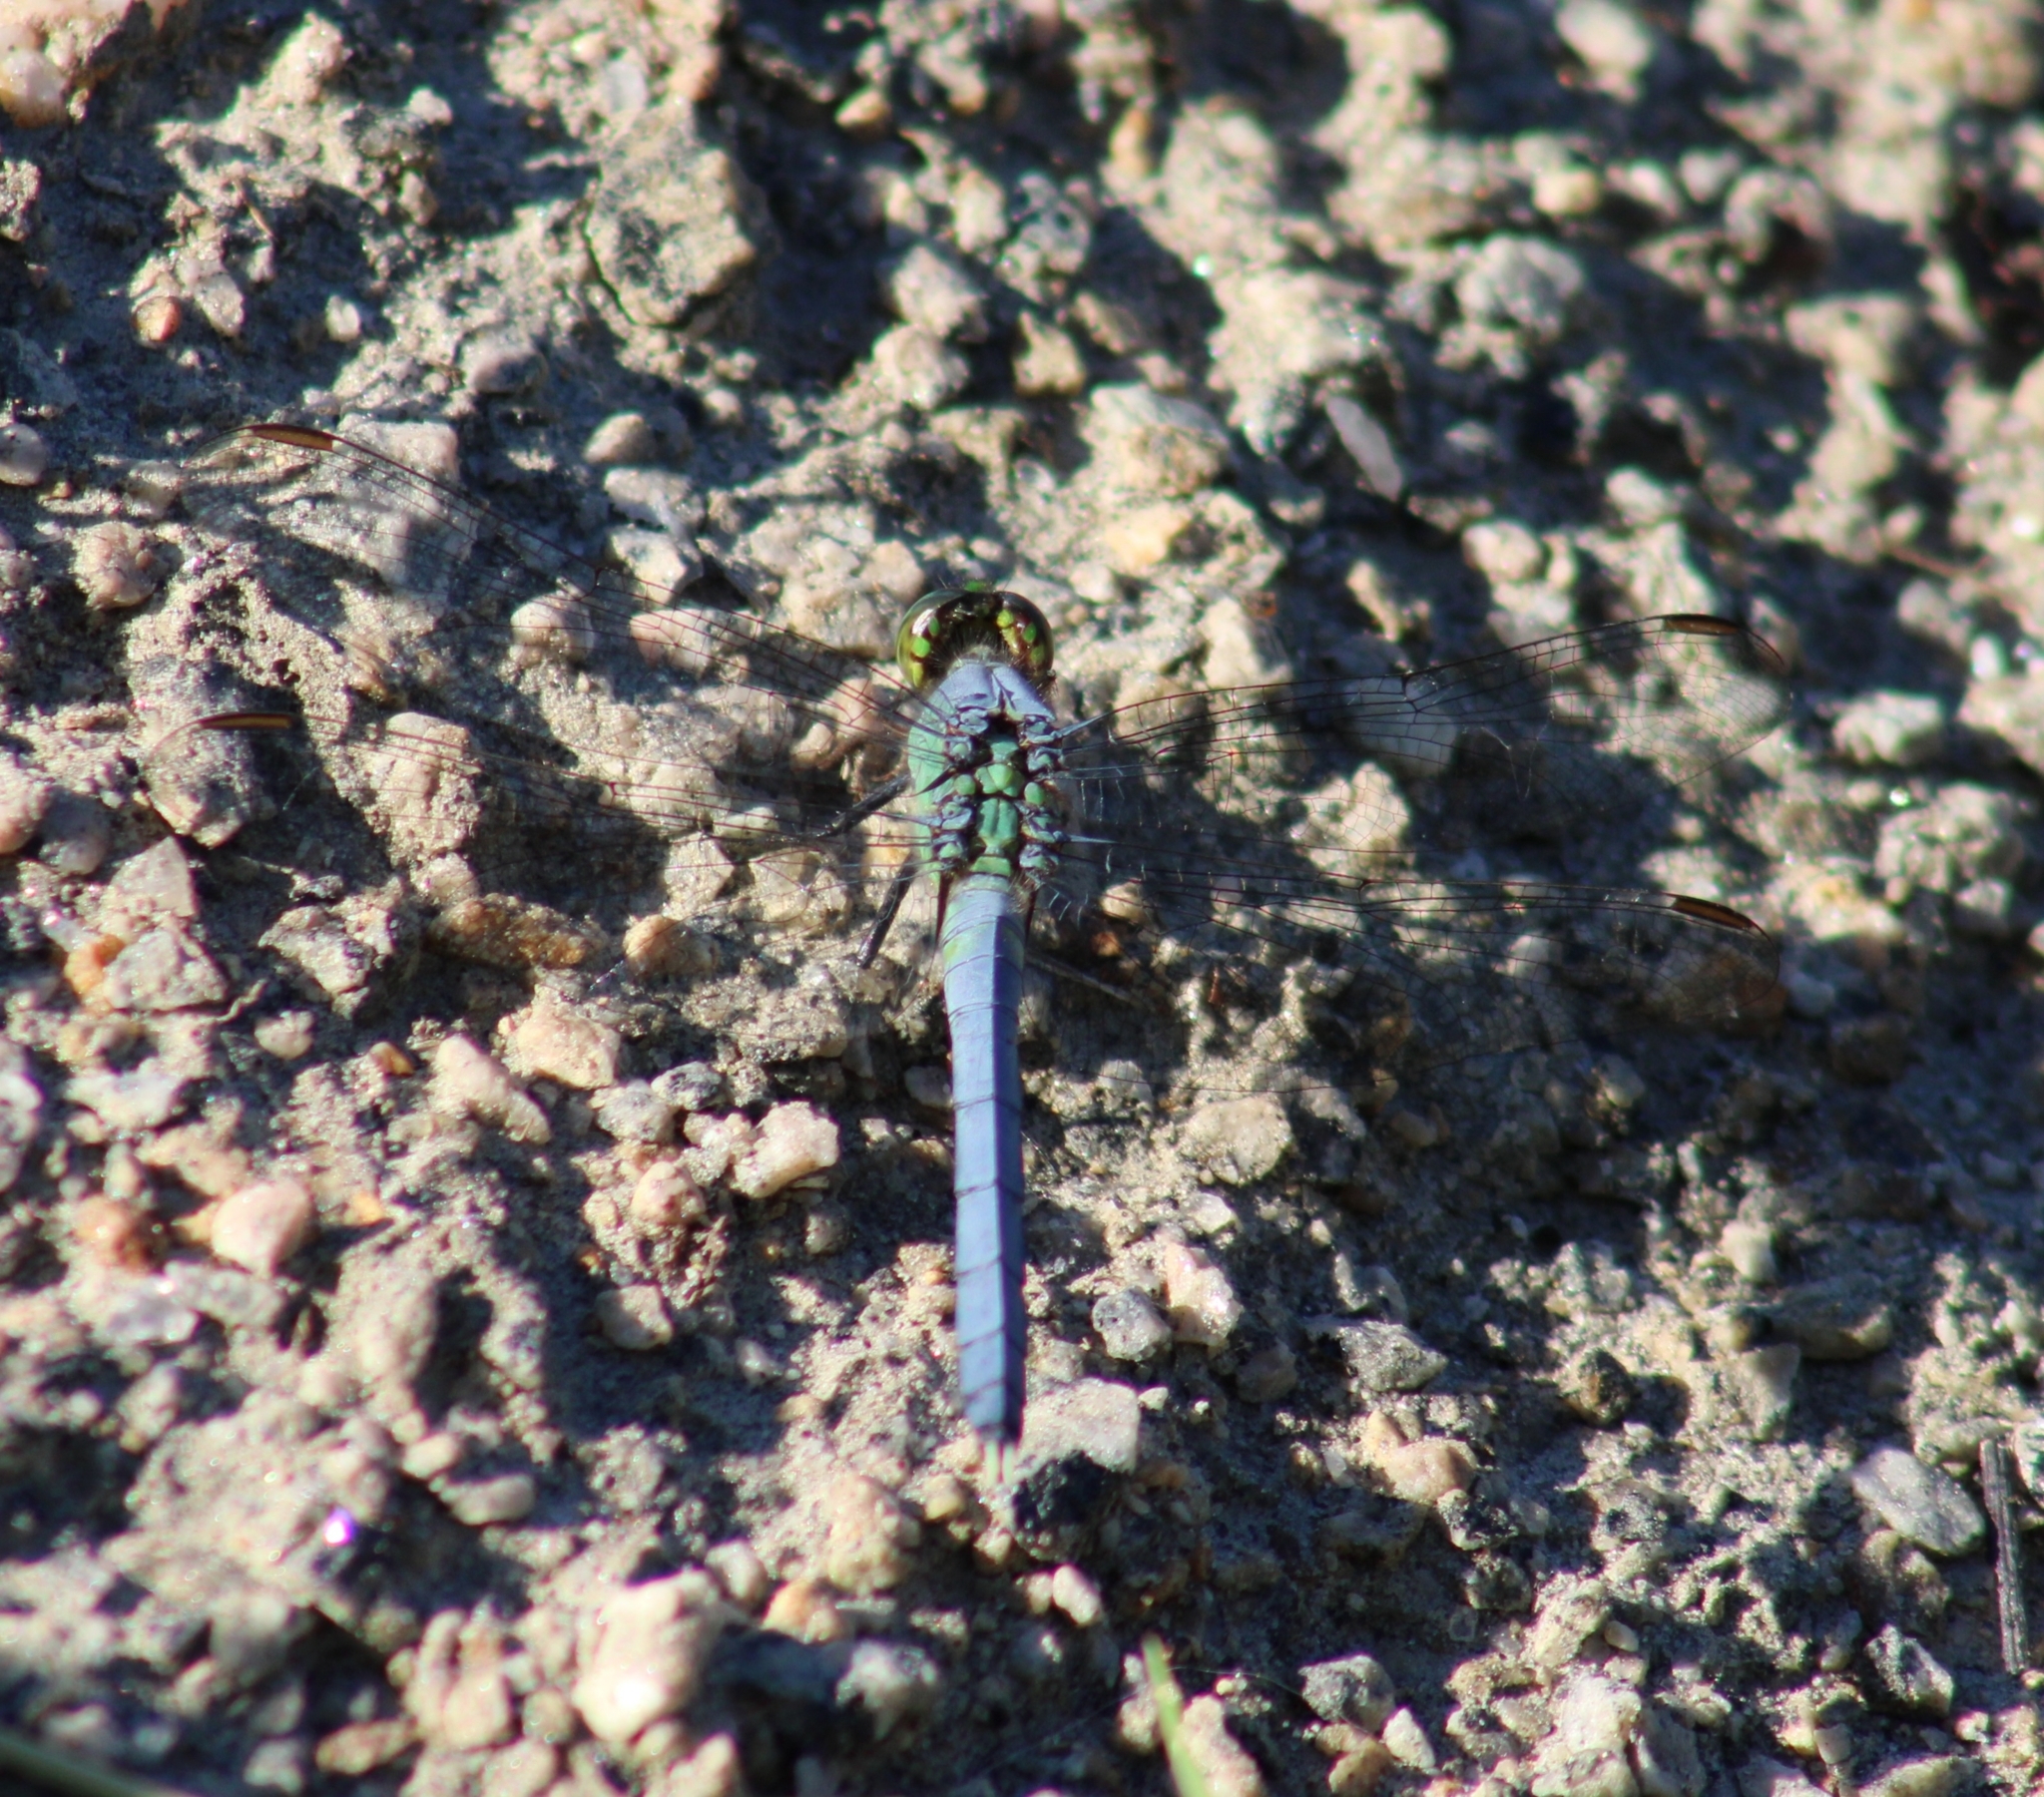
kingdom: Animalia
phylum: Arthropoda
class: Insecta
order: Odonata
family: Libellulidae
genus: Erythemis
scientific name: Erythemis simplicicollis
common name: Eastern pondhawk
